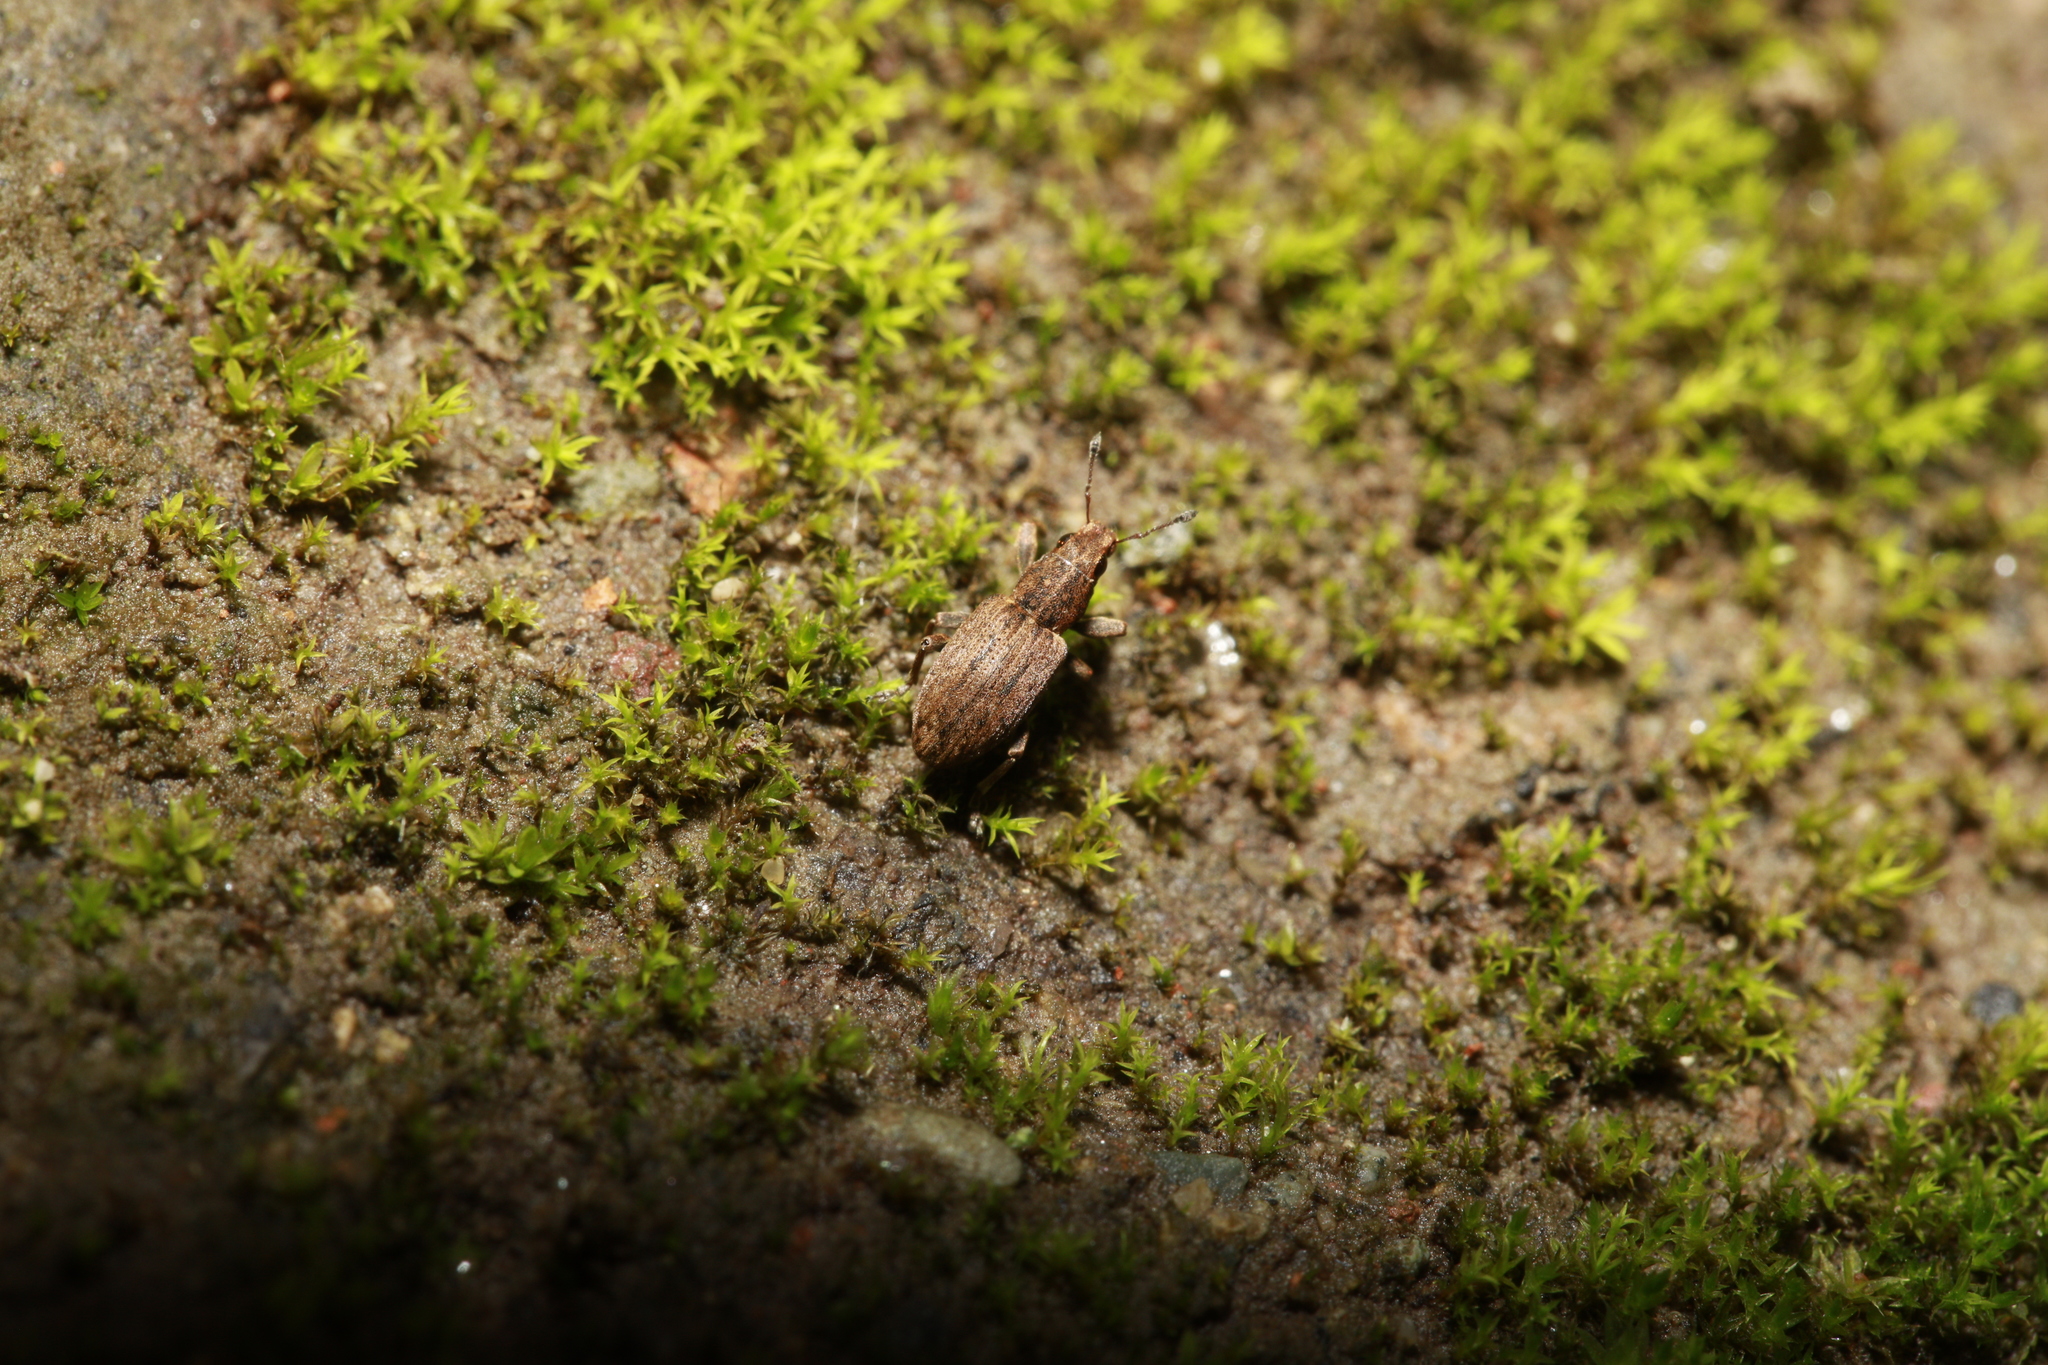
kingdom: Animalia
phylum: Arthropoda
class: Insecta
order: Coleoptera
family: Curculionidae
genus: Sitona
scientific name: Sitona obsoletus
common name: Weevil
